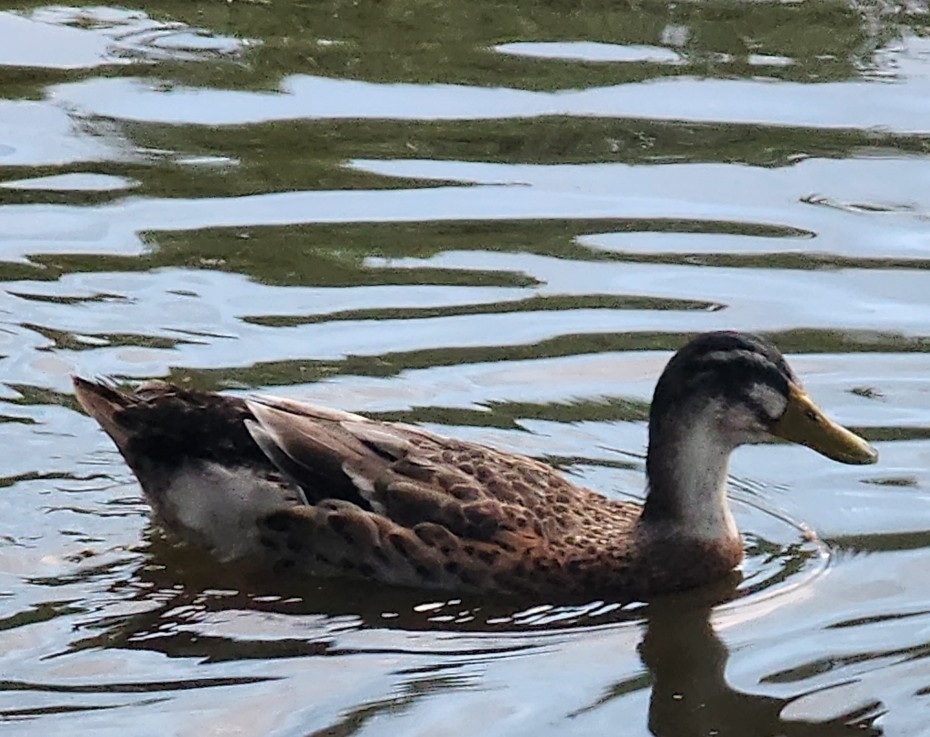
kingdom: Animalia
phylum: Chordata
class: Aves
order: Anseriformes
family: Anatidae
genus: Anas
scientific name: Anas platyrhynchos
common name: Mallard
